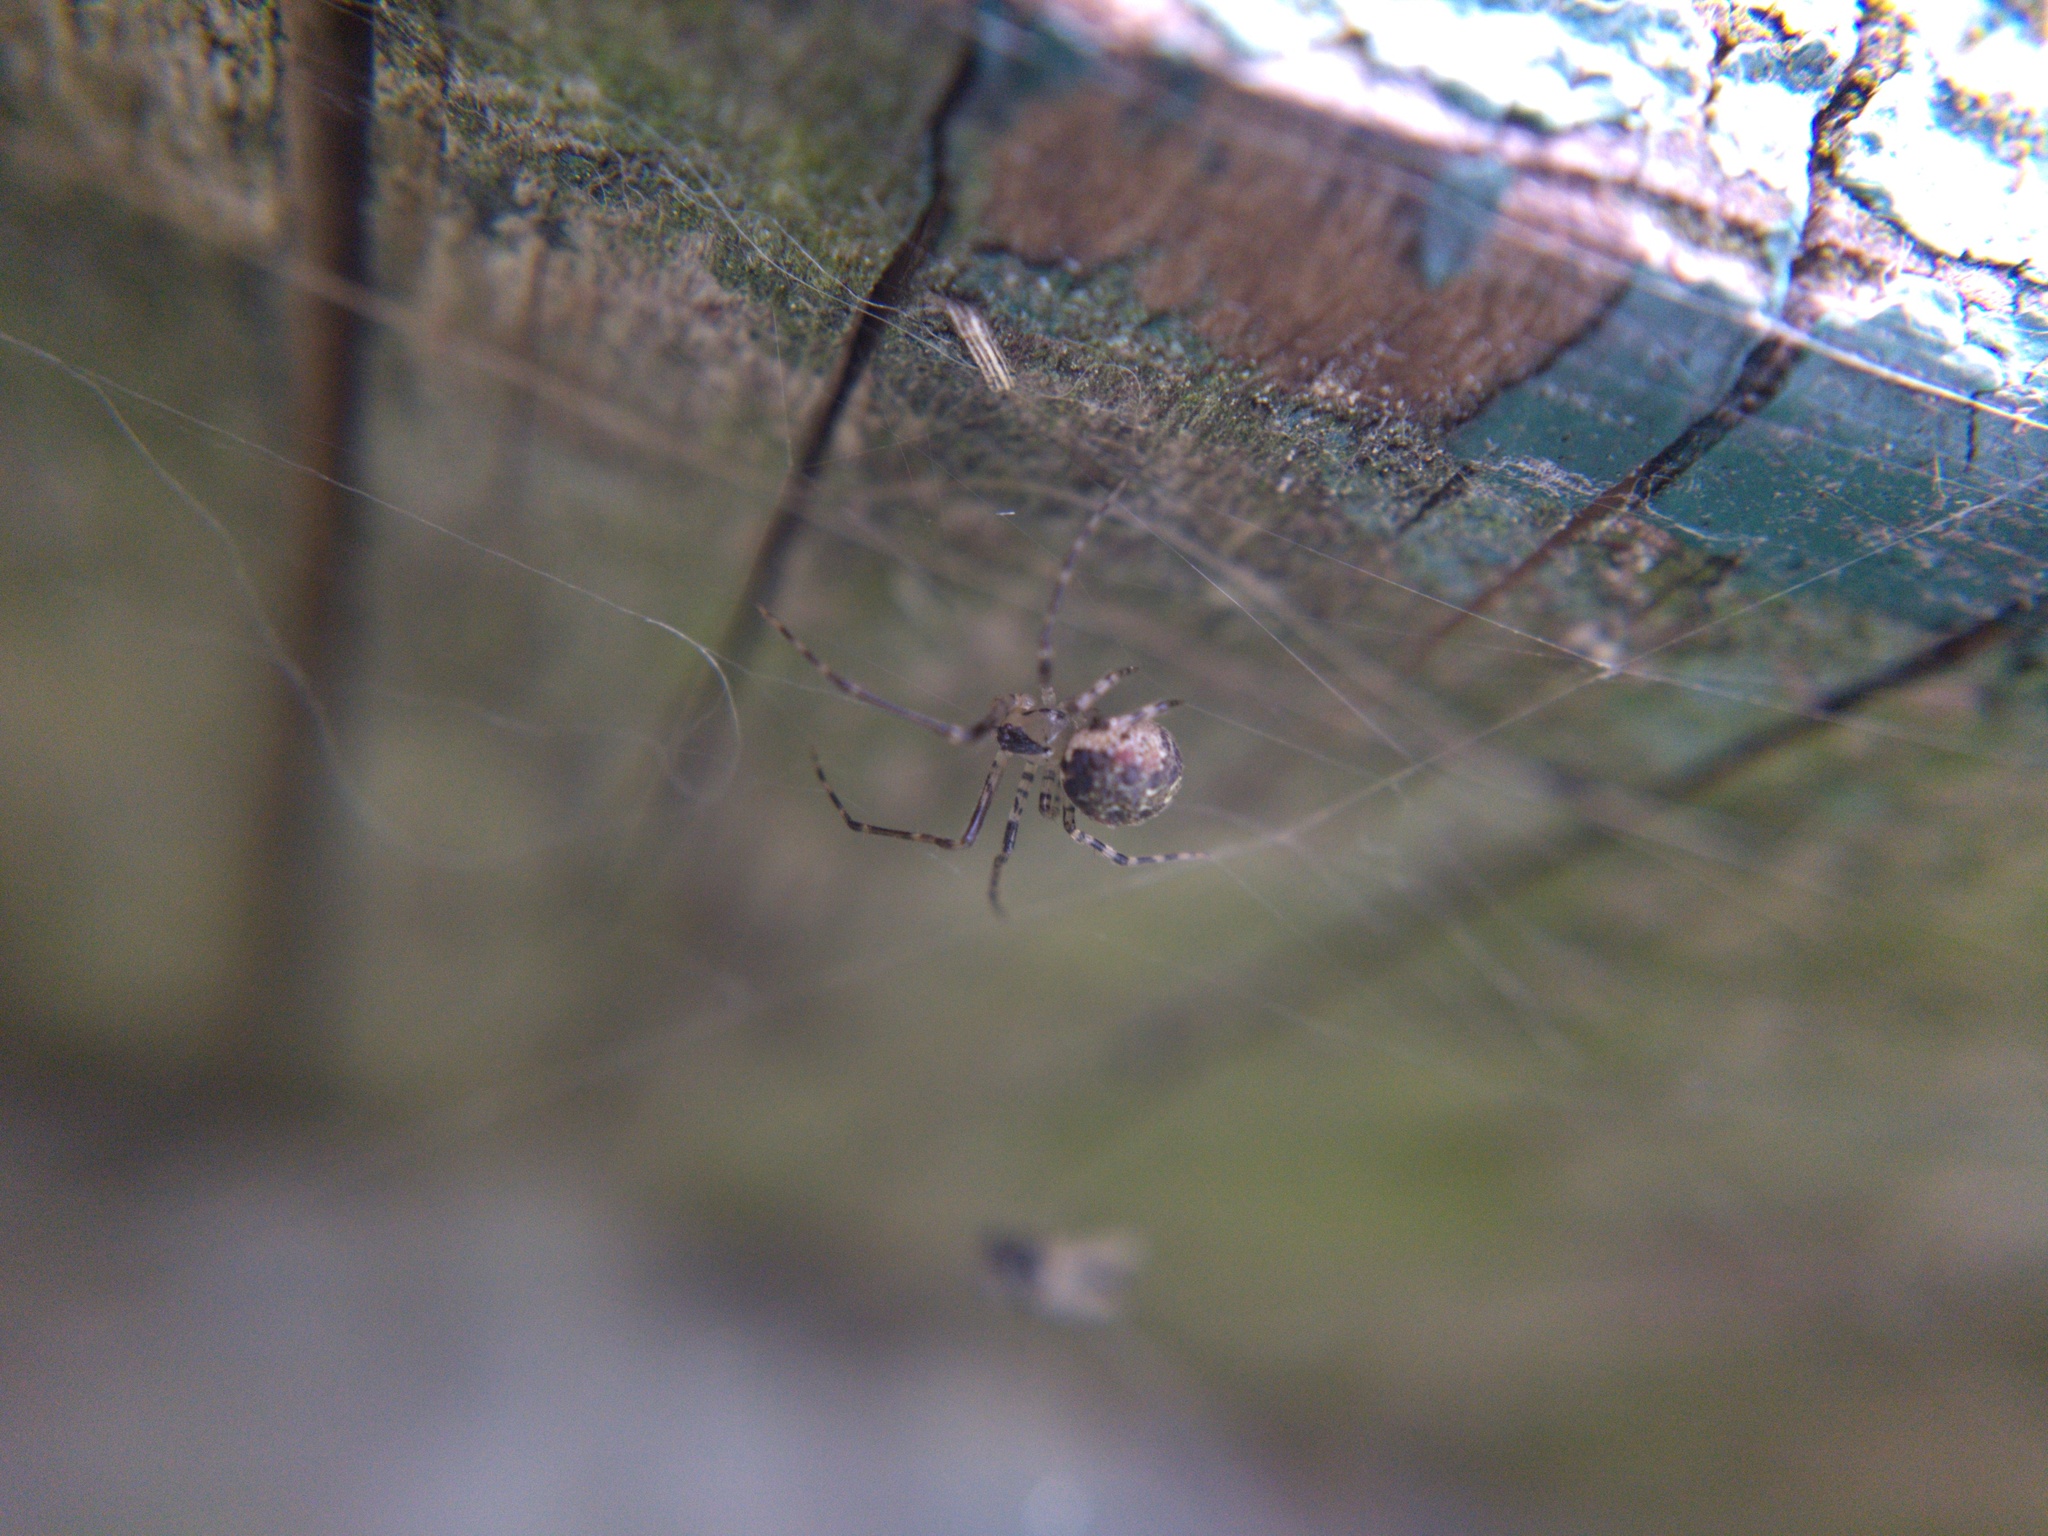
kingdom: Animalia
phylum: Arthropoda
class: Arachnida
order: Araneae
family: Theridiidae
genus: Platnickina
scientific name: Platnickina tincta
